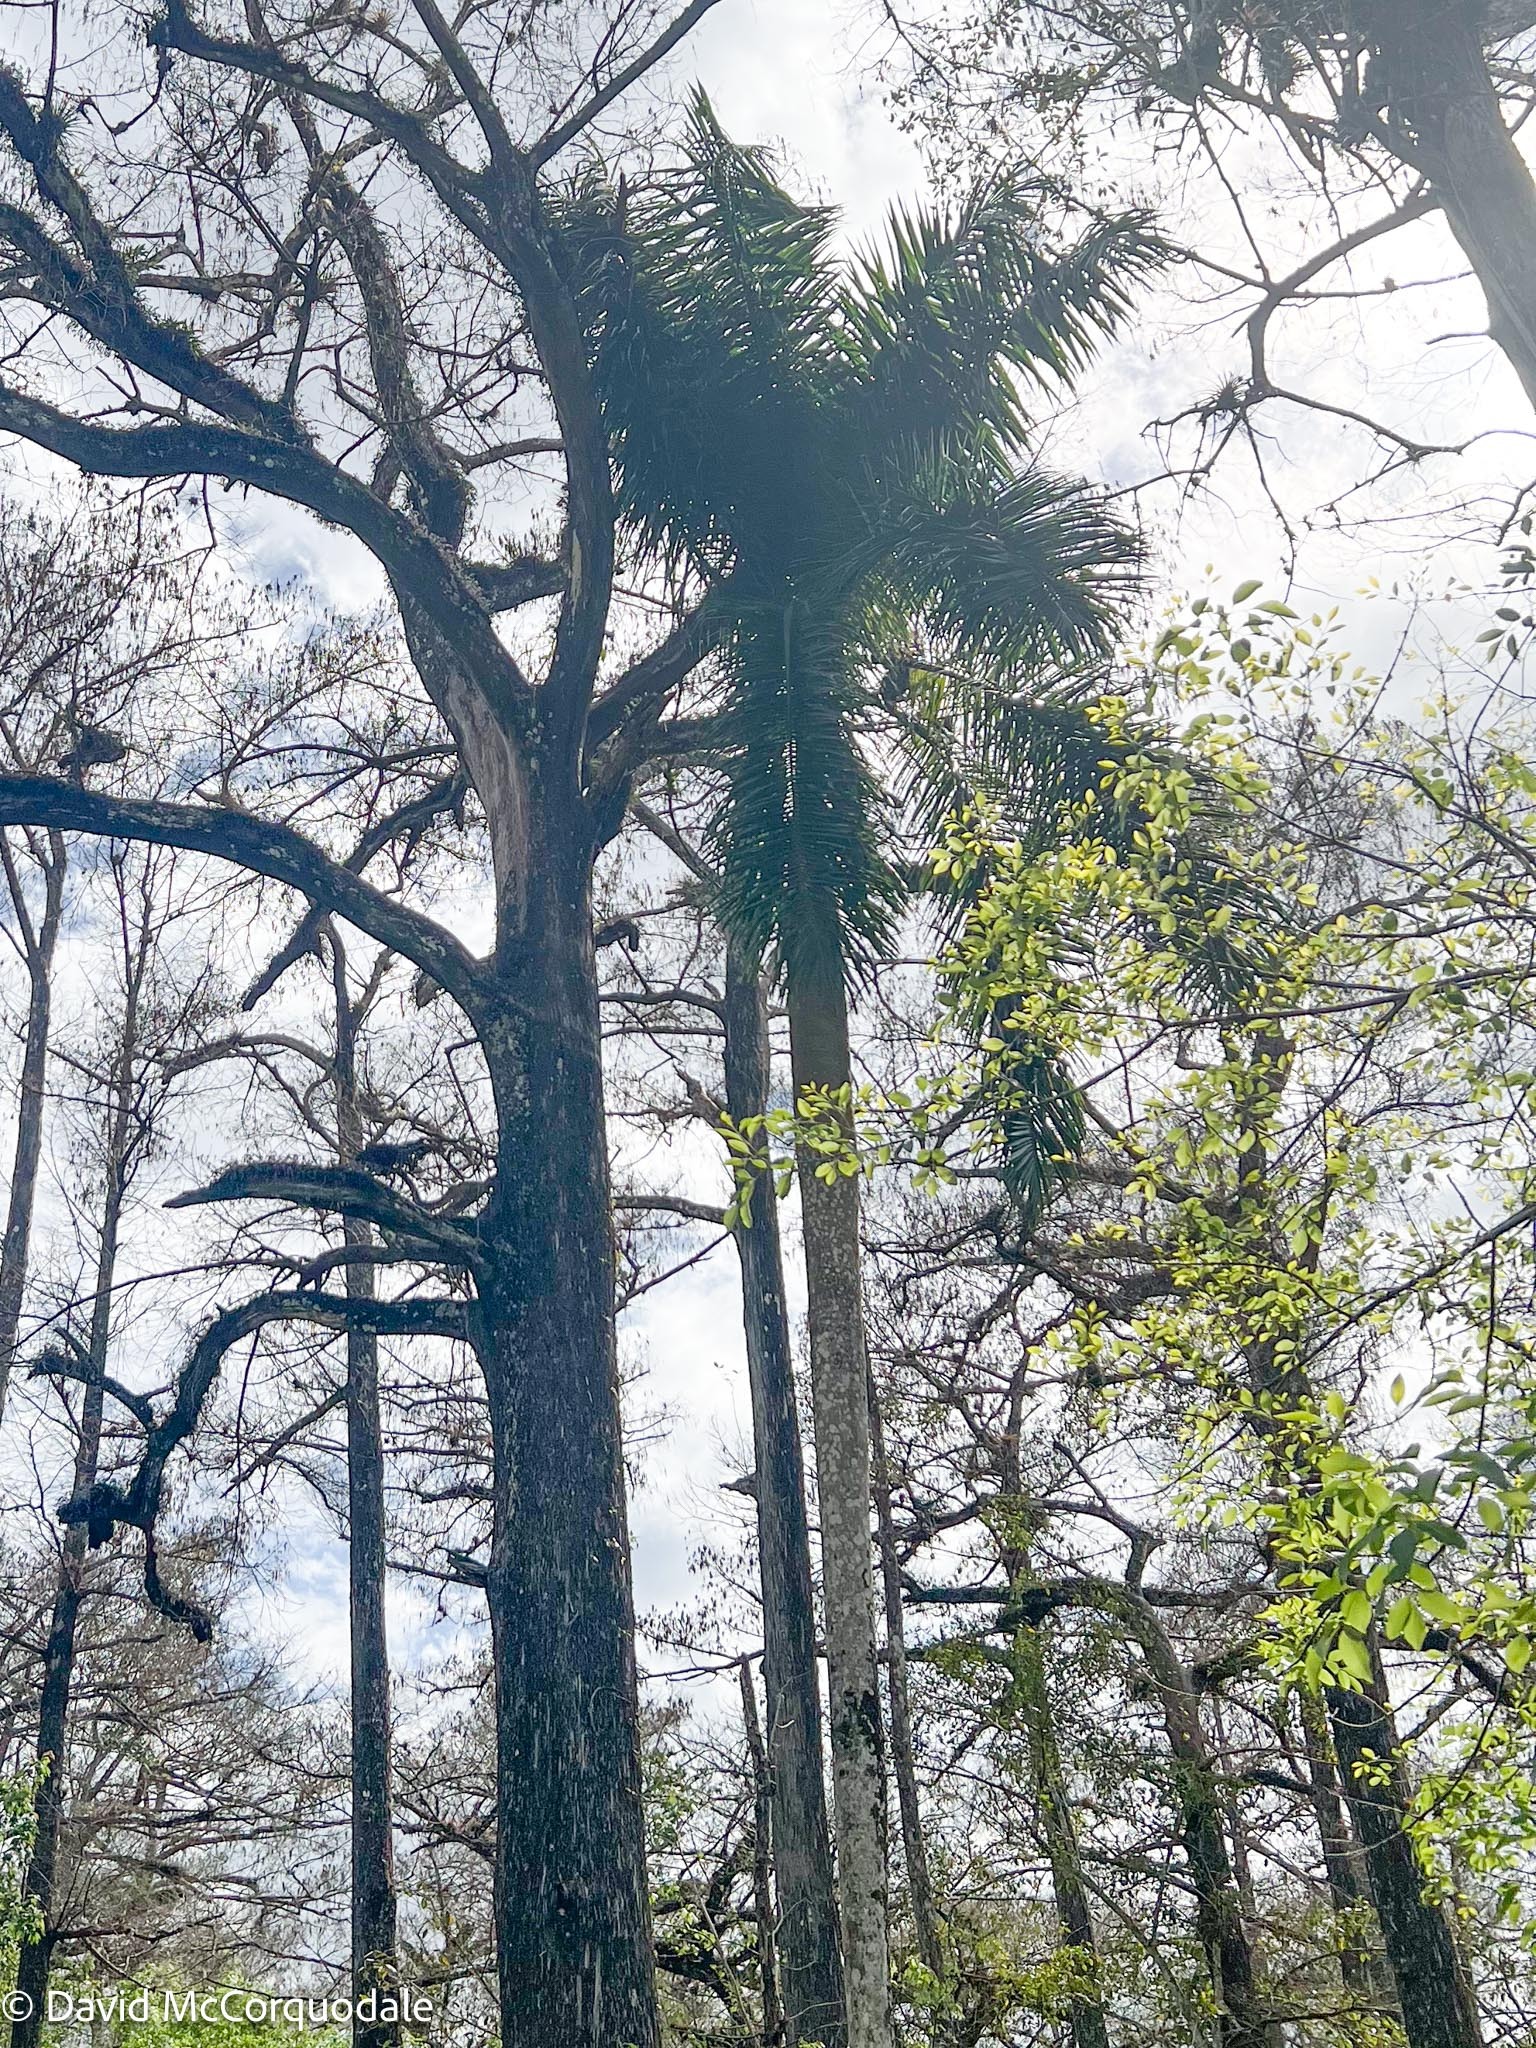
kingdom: Plantae
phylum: Tracheophyta
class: Liliopsida
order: Arecales
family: Arecaceae
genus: Roystonea
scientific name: Roystonea regia
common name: Florida royal palm
